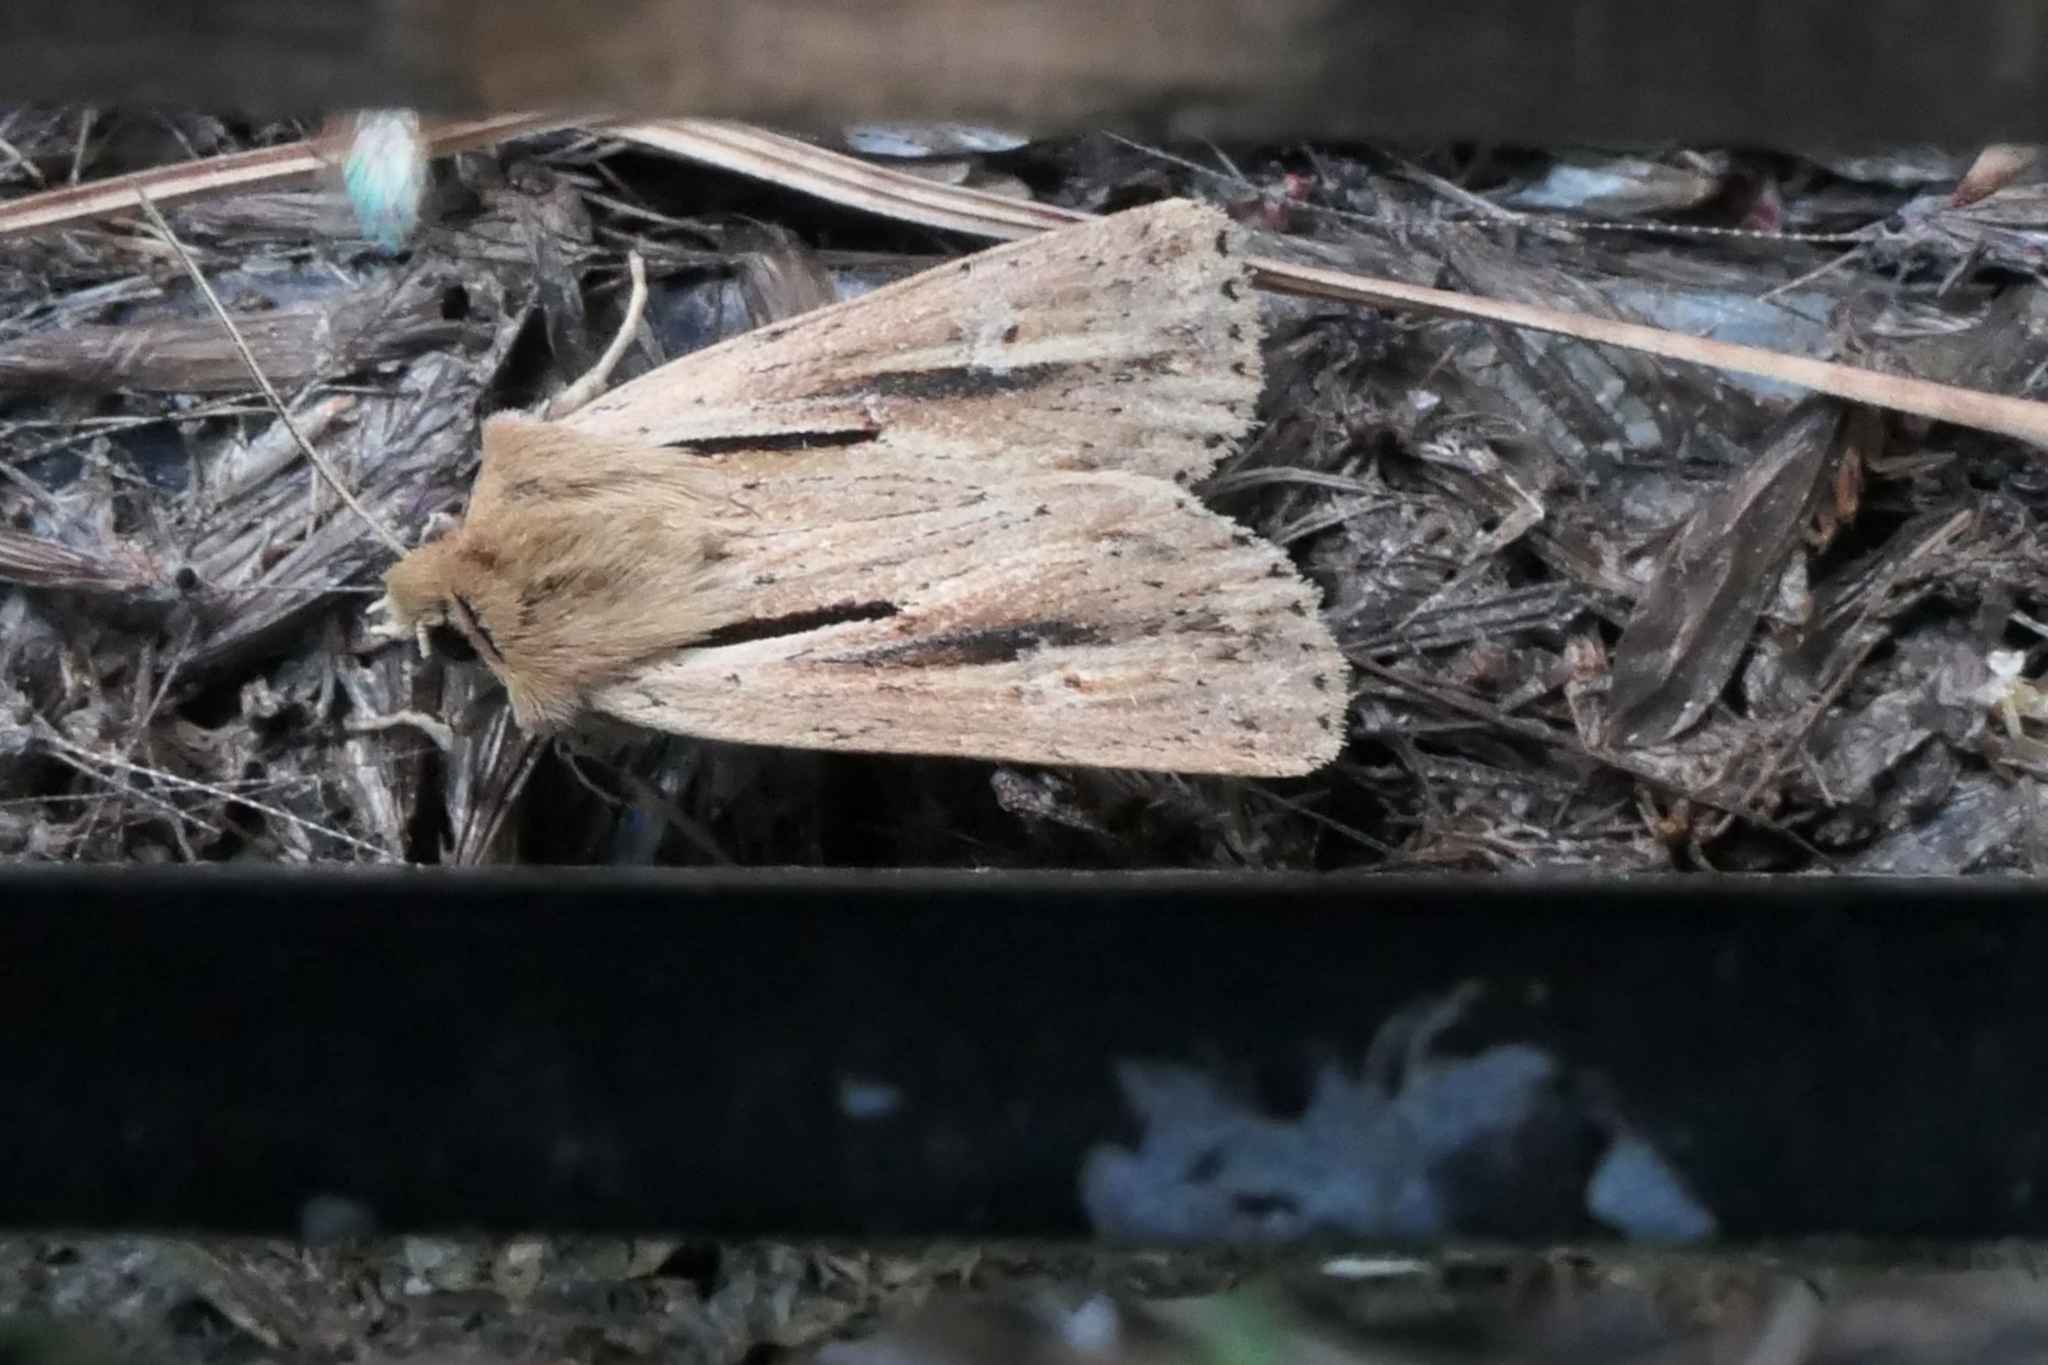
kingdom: Animalia
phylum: Arthropoda
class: Insecta
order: Lepidoptera
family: Noctuidae
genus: Ichneutica
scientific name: Ichneutica propria
